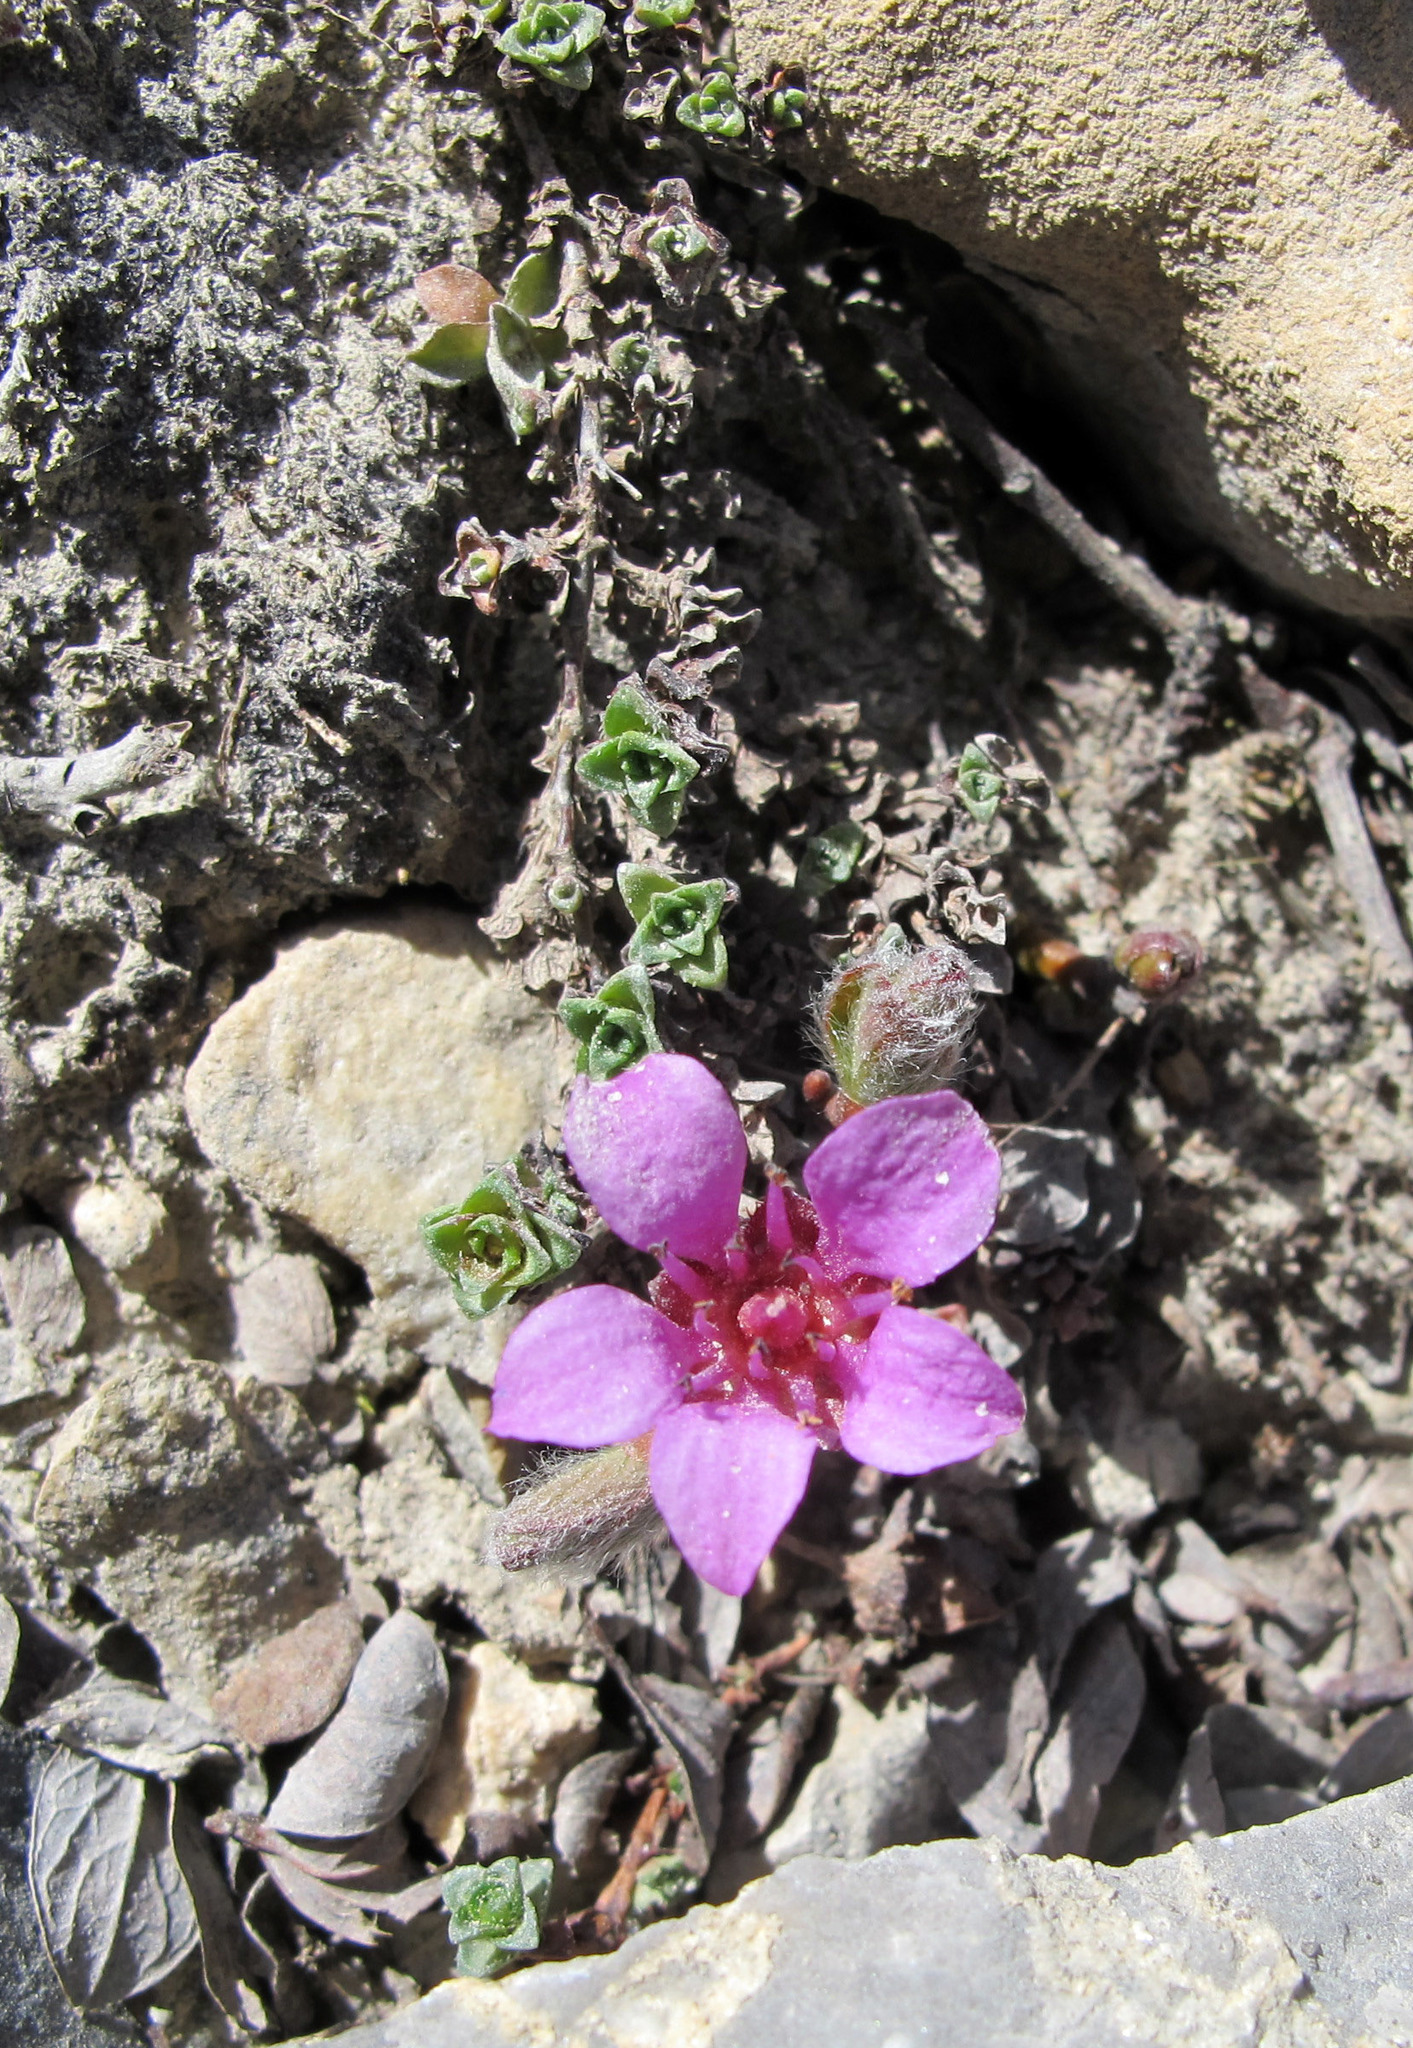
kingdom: Plantae
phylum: Tracheophyta
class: Magnoliopsida
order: Saxifragales
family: Saxifragaceae
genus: Saxifraga
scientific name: Saxifraga oppositifolia
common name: Purple saxifrage
